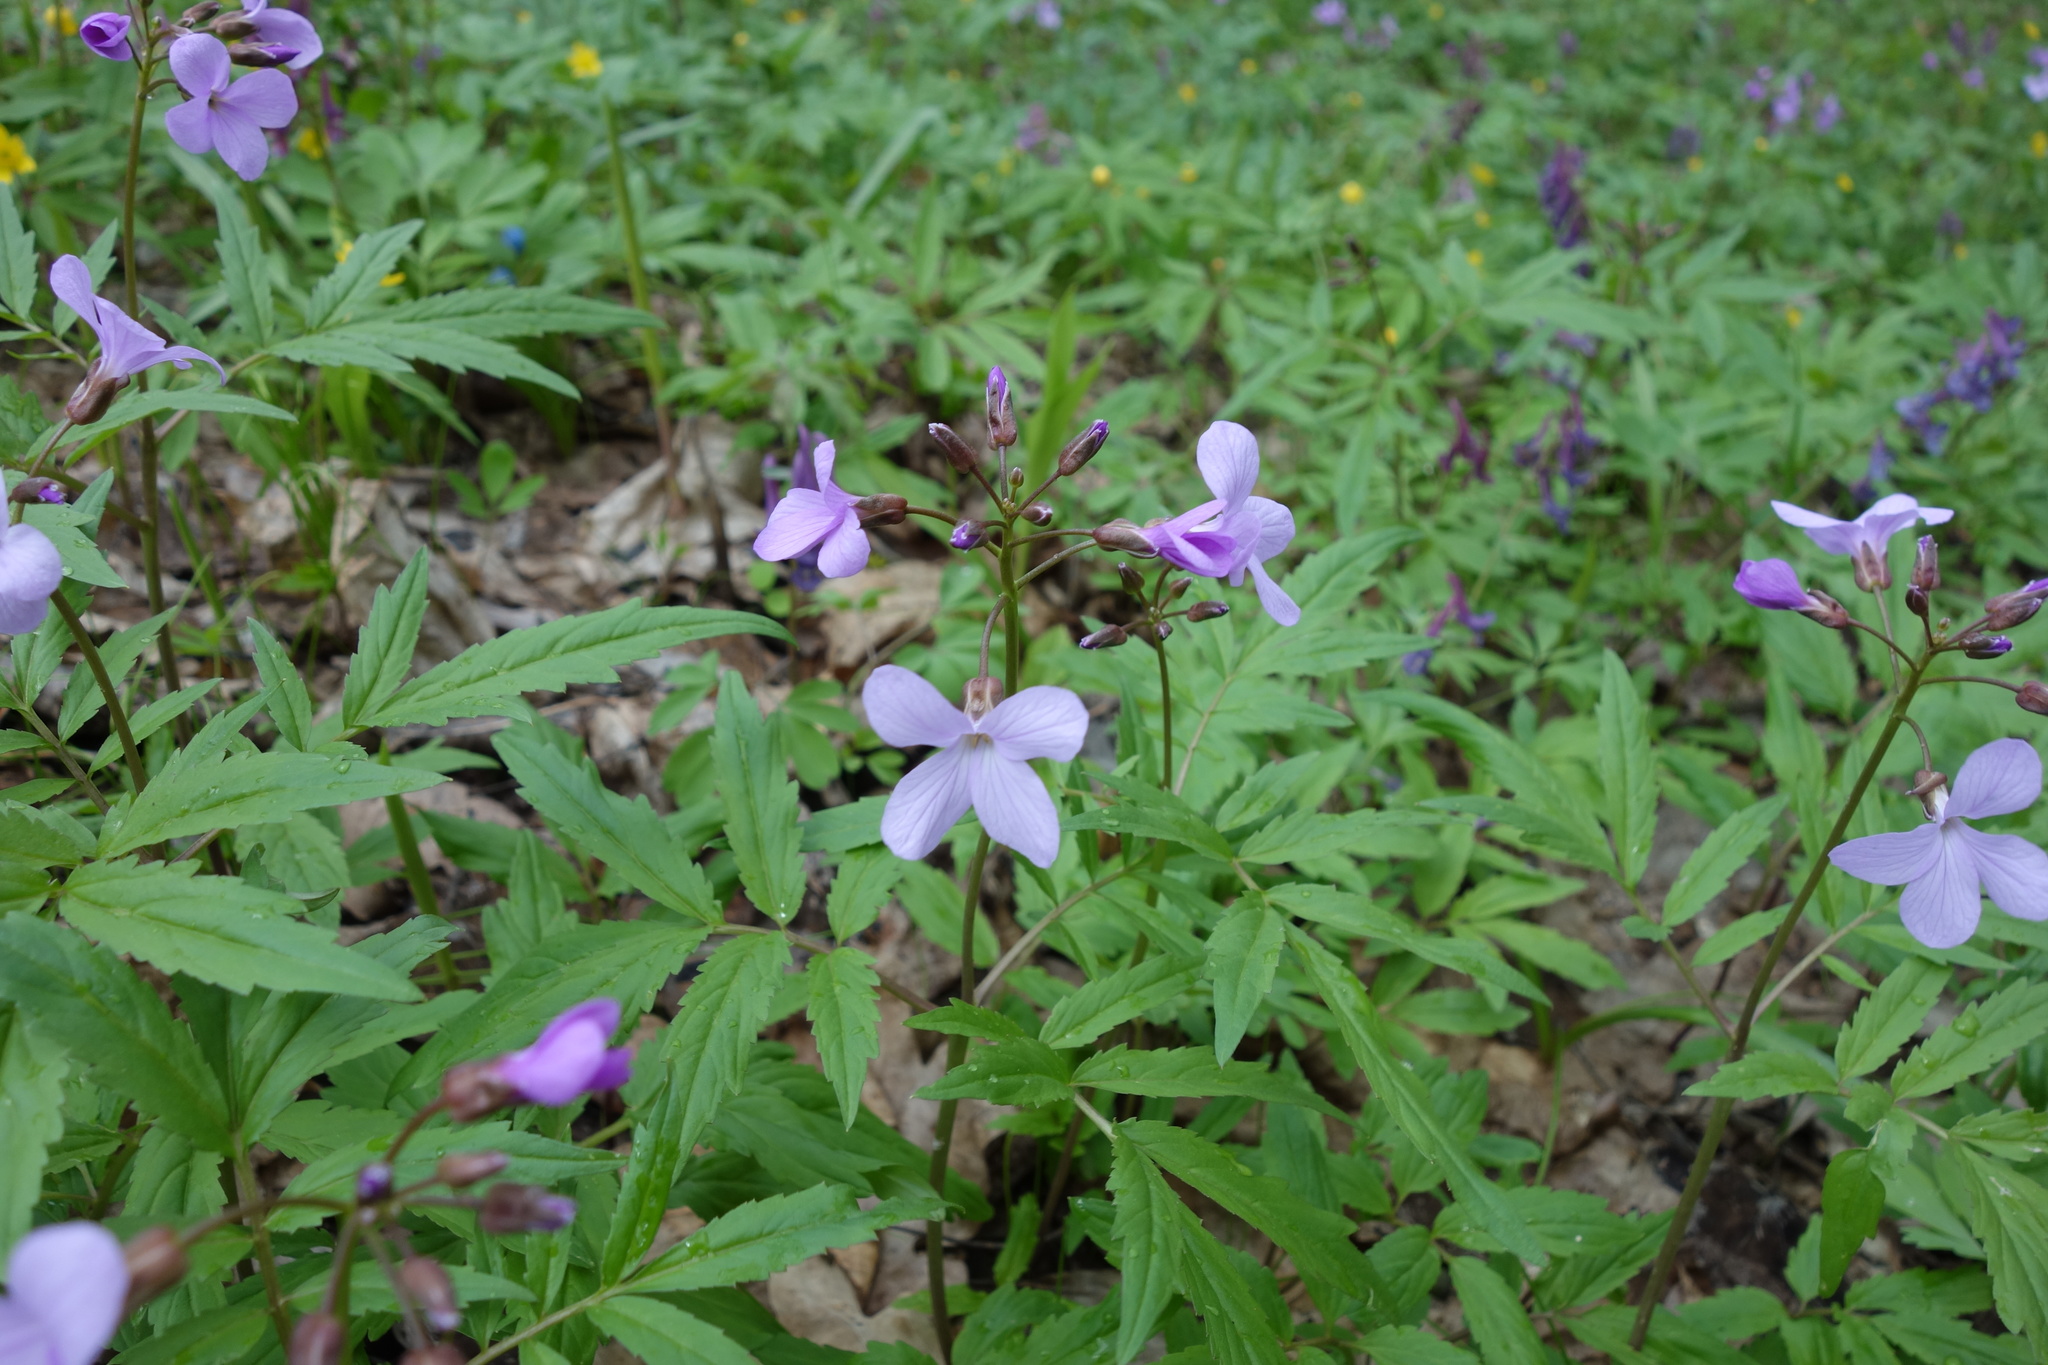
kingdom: Plantae
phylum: Tracheophyta
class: Magnoliopsida
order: Brassicales
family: Brassicaceae
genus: Cardamine
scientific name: Cardamine quinquefolia
